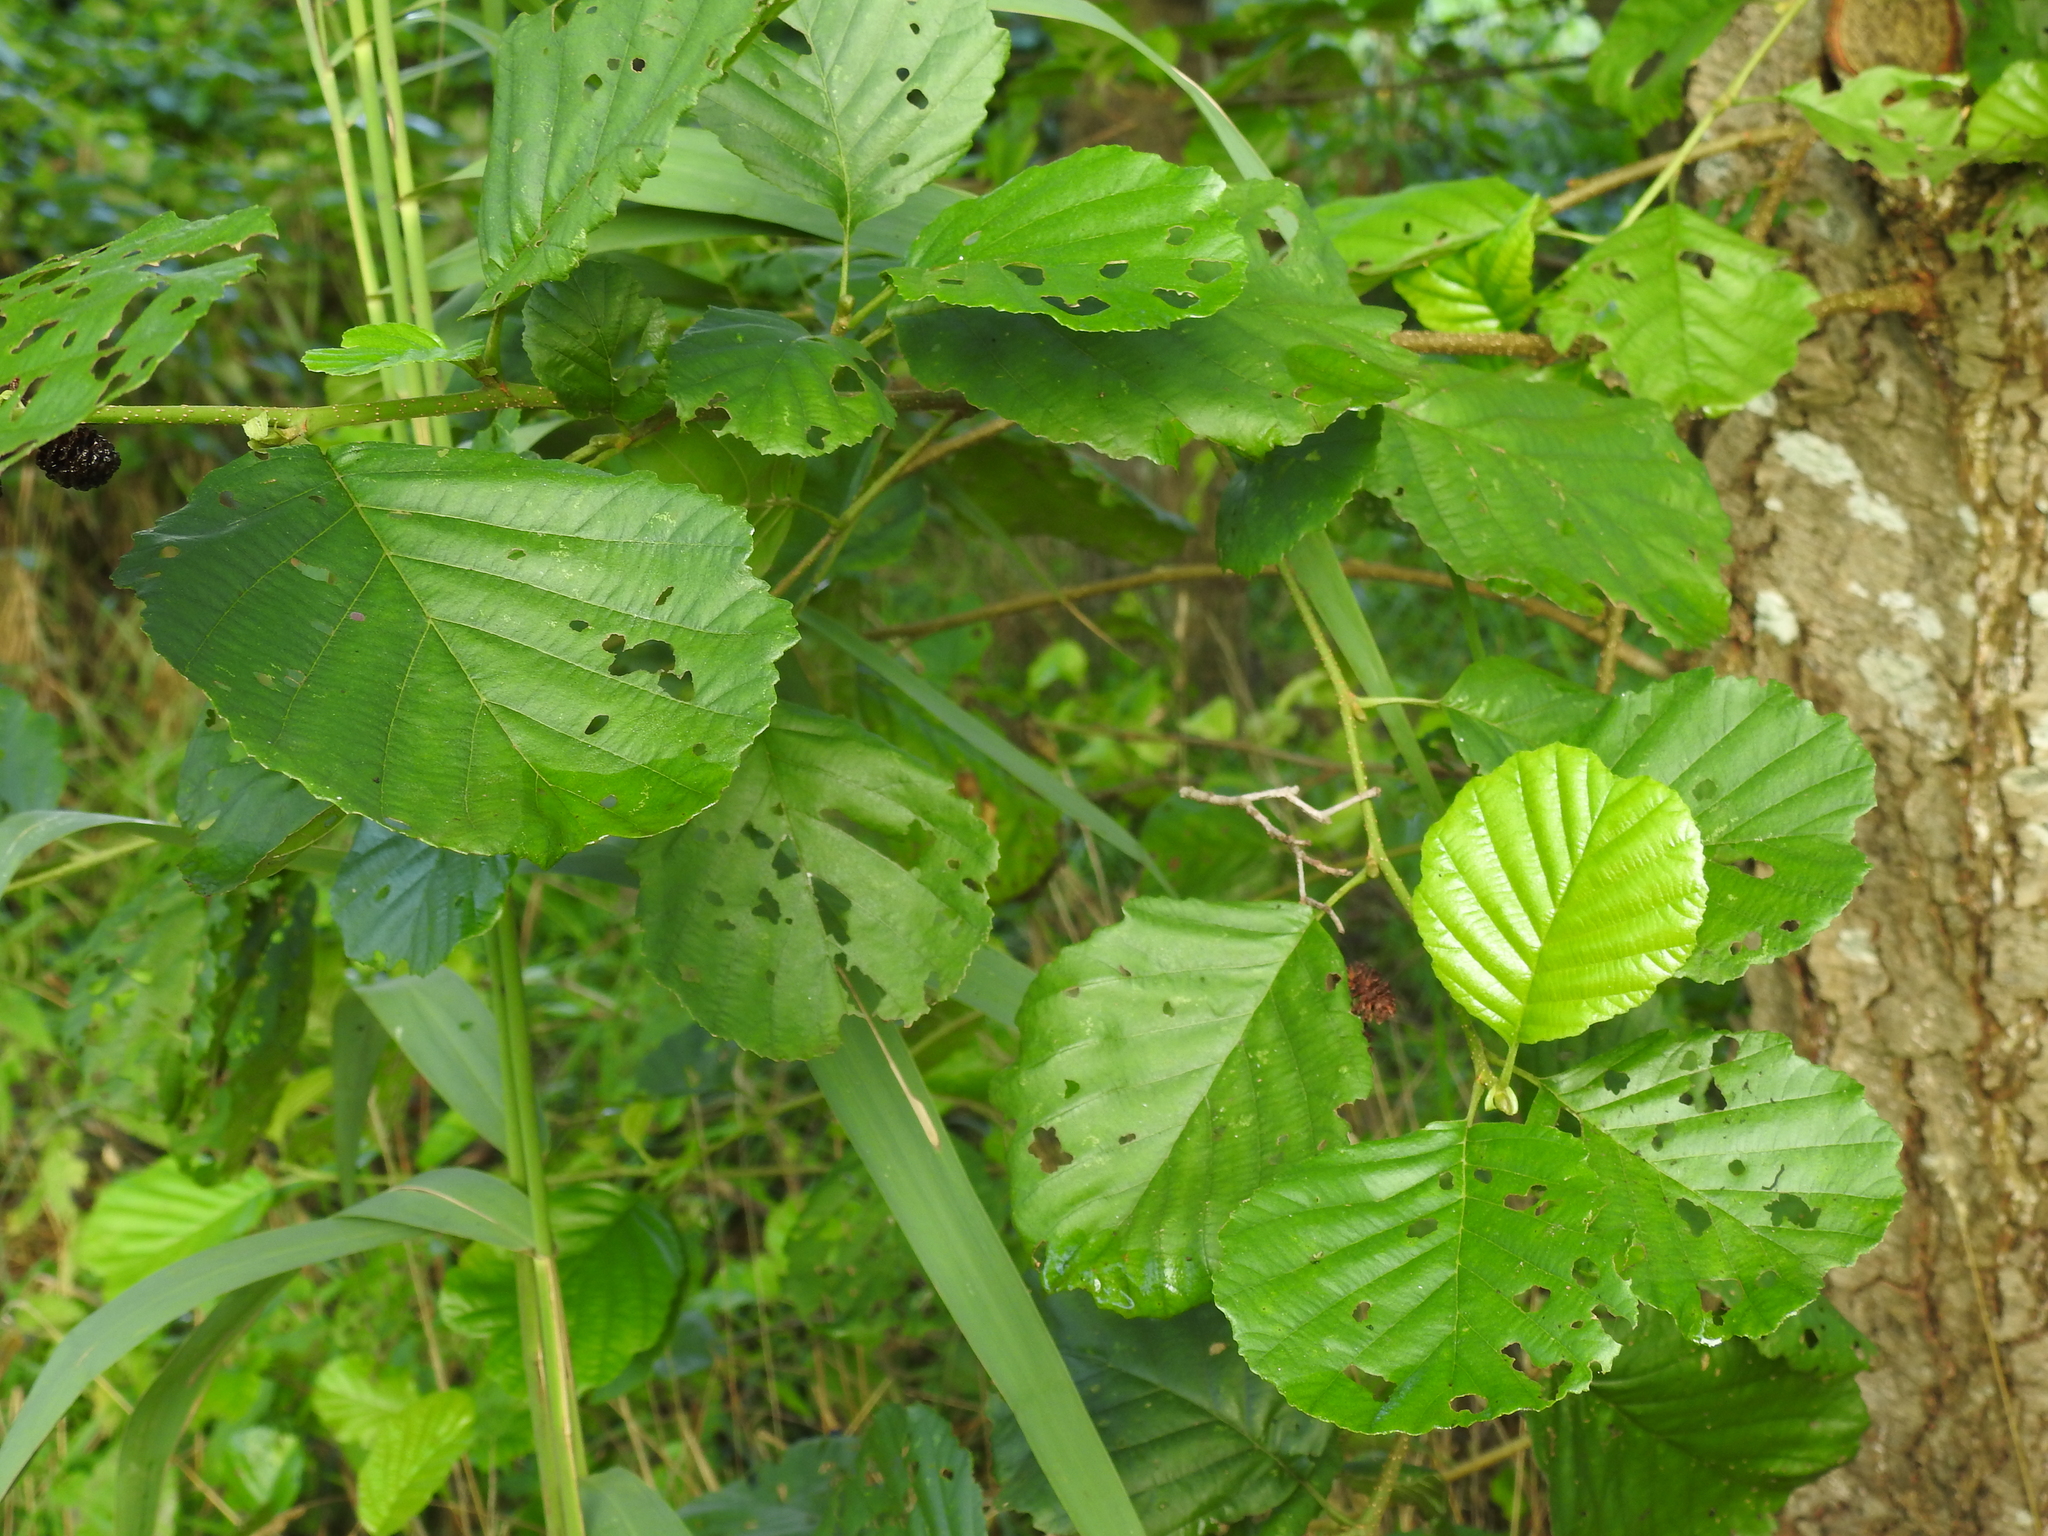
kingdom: Plantae
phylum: Tracheophyta
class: Magnoliopsida
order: Fagales
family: Betulaceae
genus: Alnus
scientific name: Alnus glutinosa
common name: Black alder
